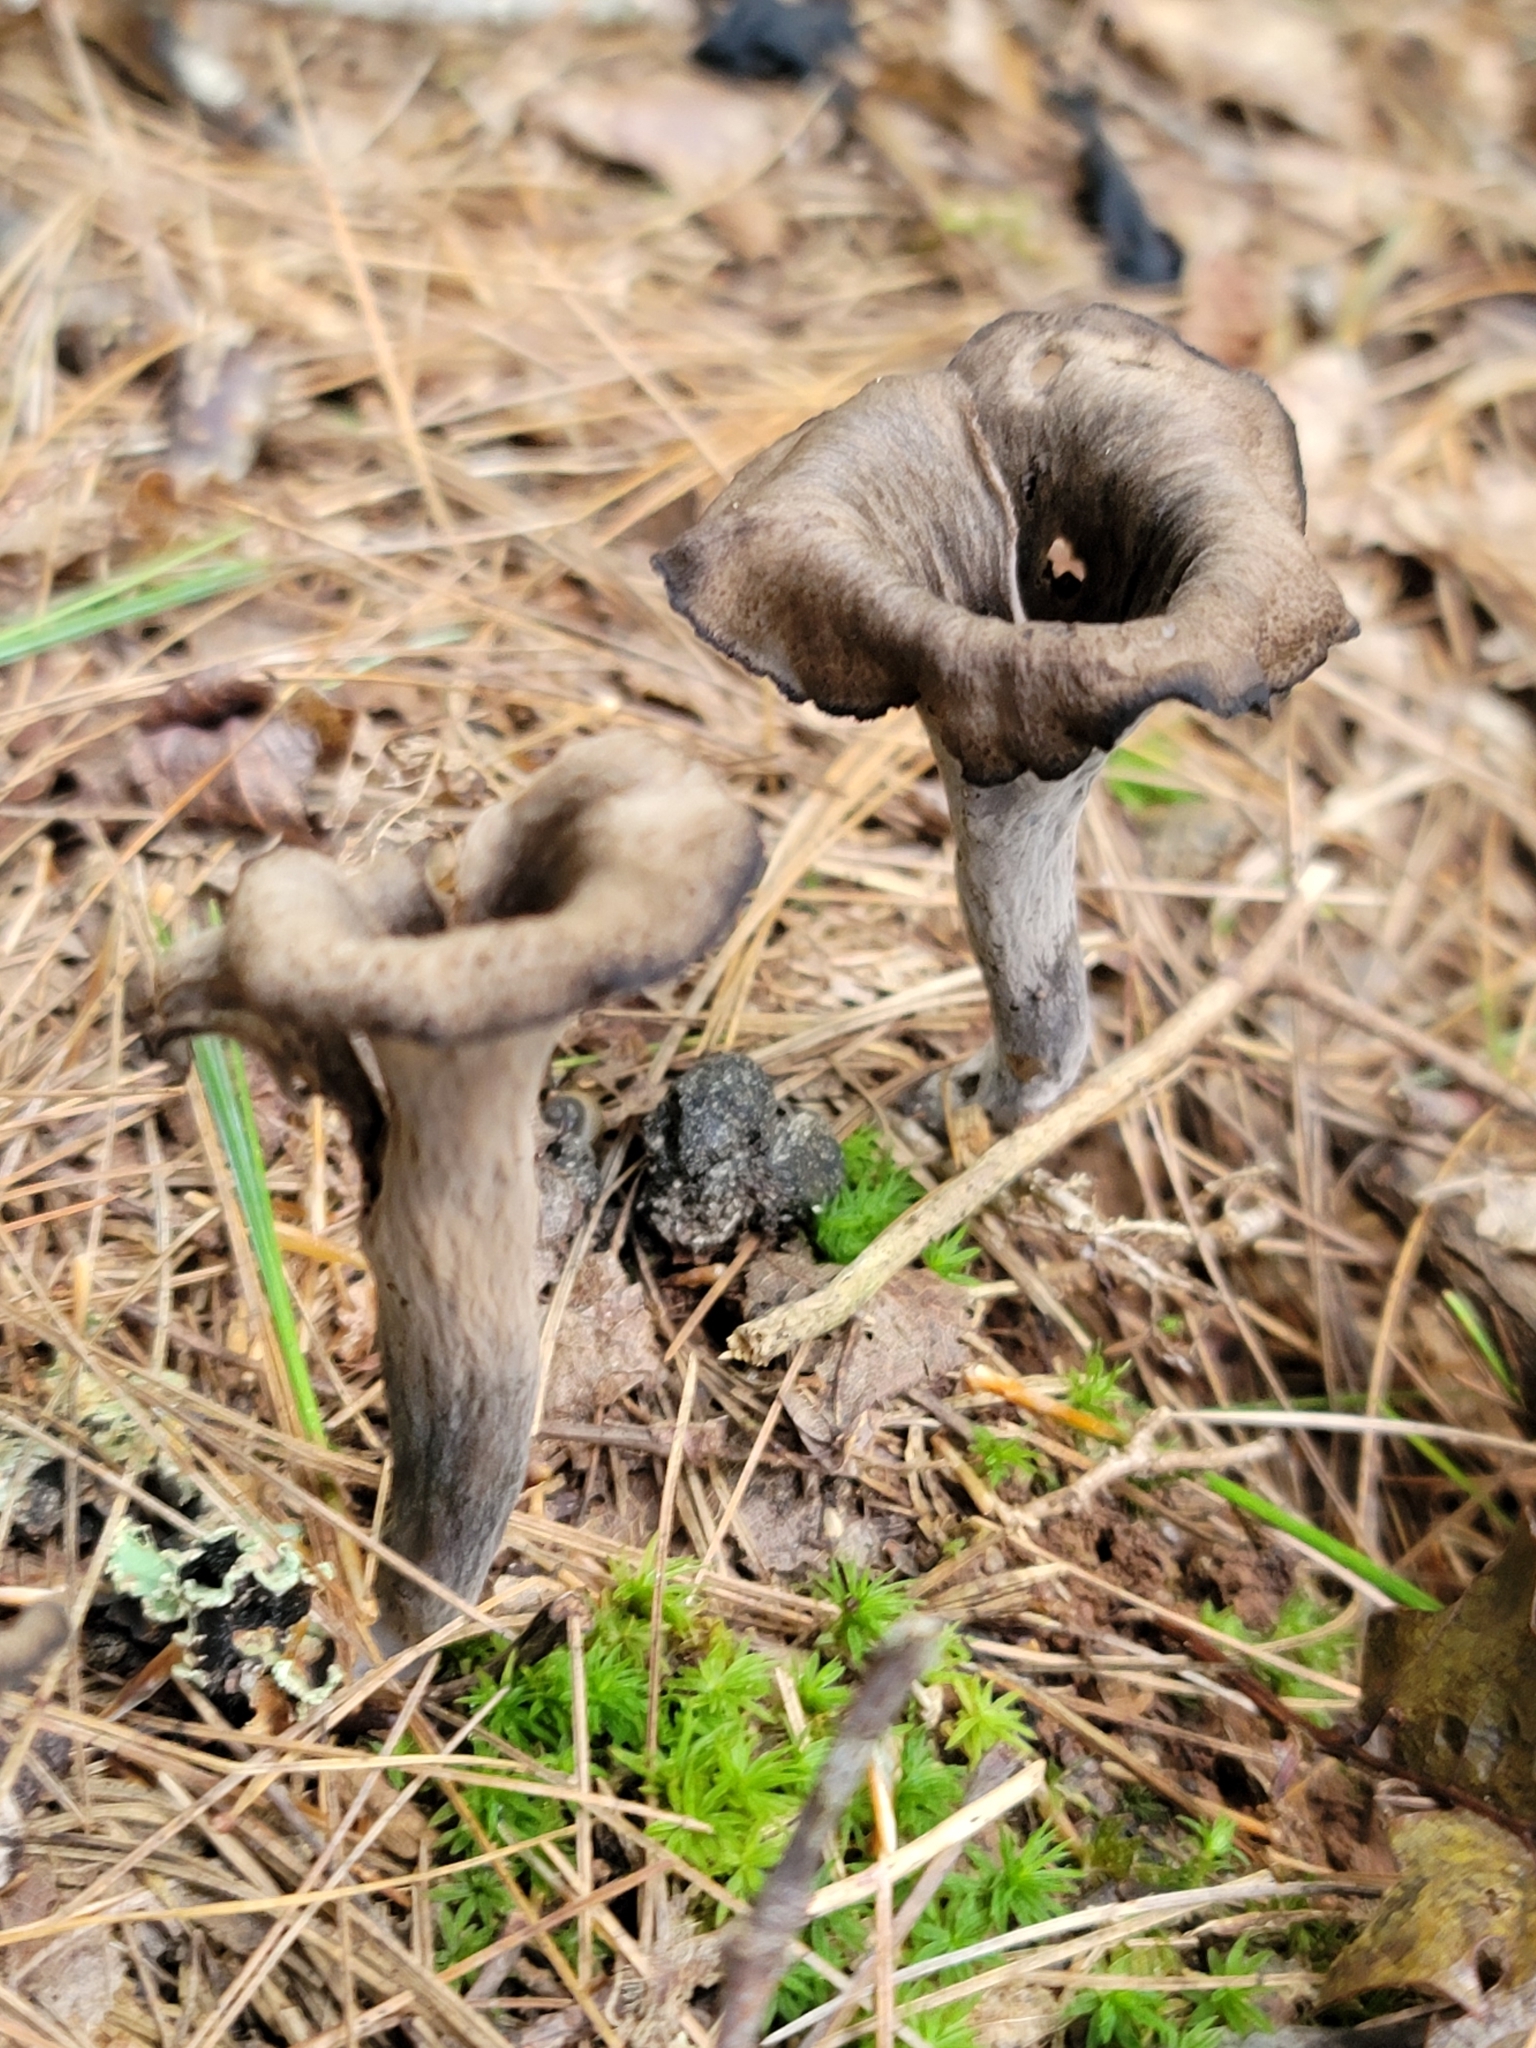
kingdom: Fungi
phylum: Basidiomycota
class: Agaricomycetes
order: Cantharellales
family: Hydnaceae
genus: Craterellus
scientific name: Craterellus cornucopioides
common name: Horn of plenty
